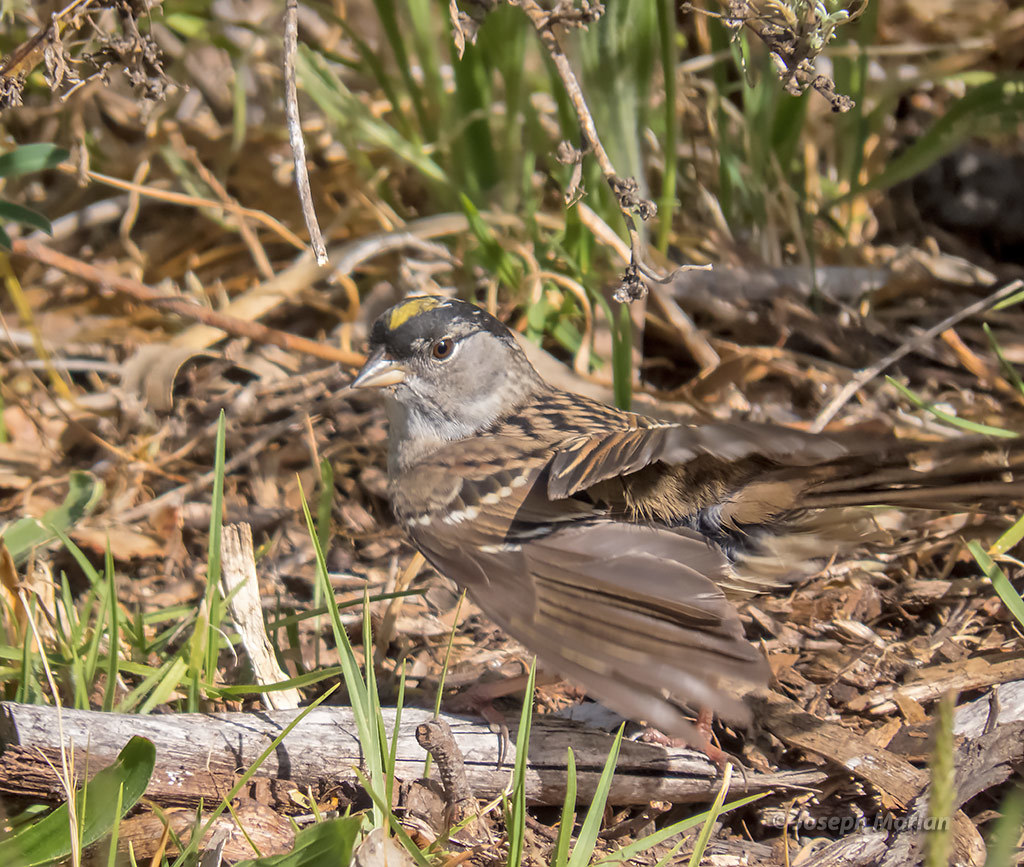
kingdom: Animalia
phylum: Chordata
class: Aves
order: Passeriformes
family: Passerellidae
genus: Zonotrichia
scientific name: Zonotrichia atricapilla
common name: Golden-crowned sparrow
